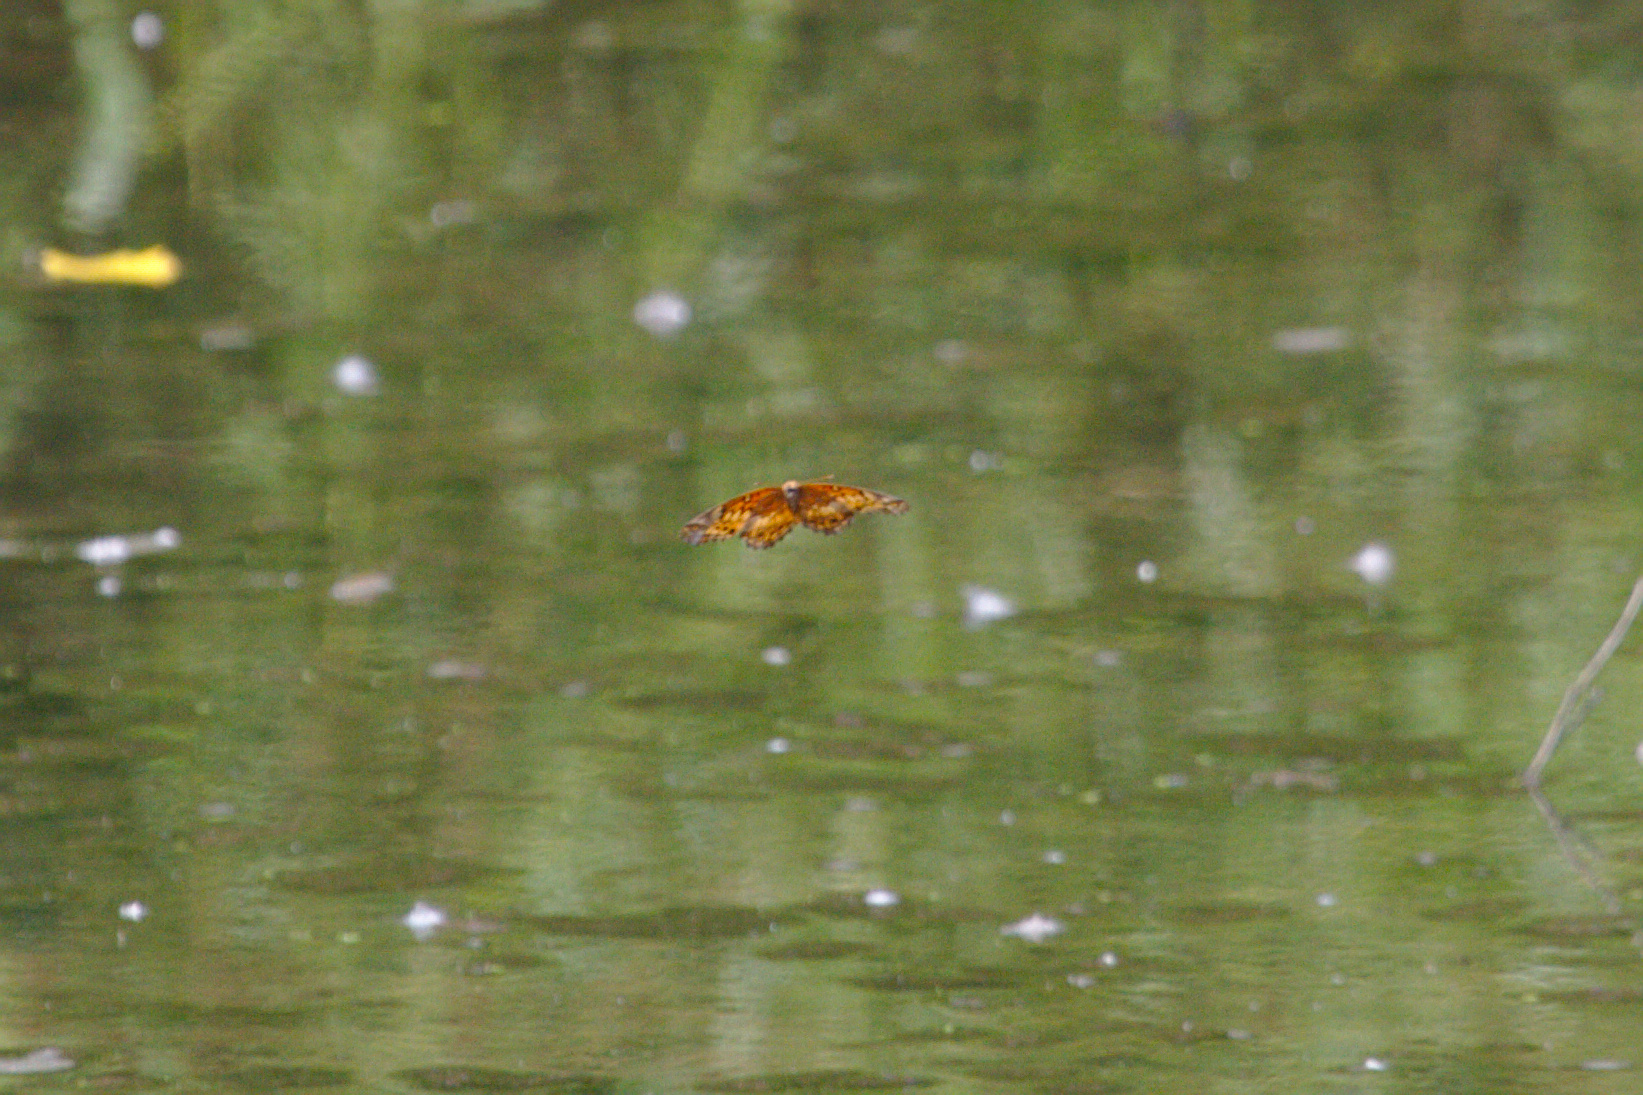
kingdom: Animalia
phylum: Arthropoda
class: Insecta
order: Lepidoptera
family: Nymphalidae
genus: Euptoieta
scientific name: Euptoieta claudia
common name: Variegated fritillary
